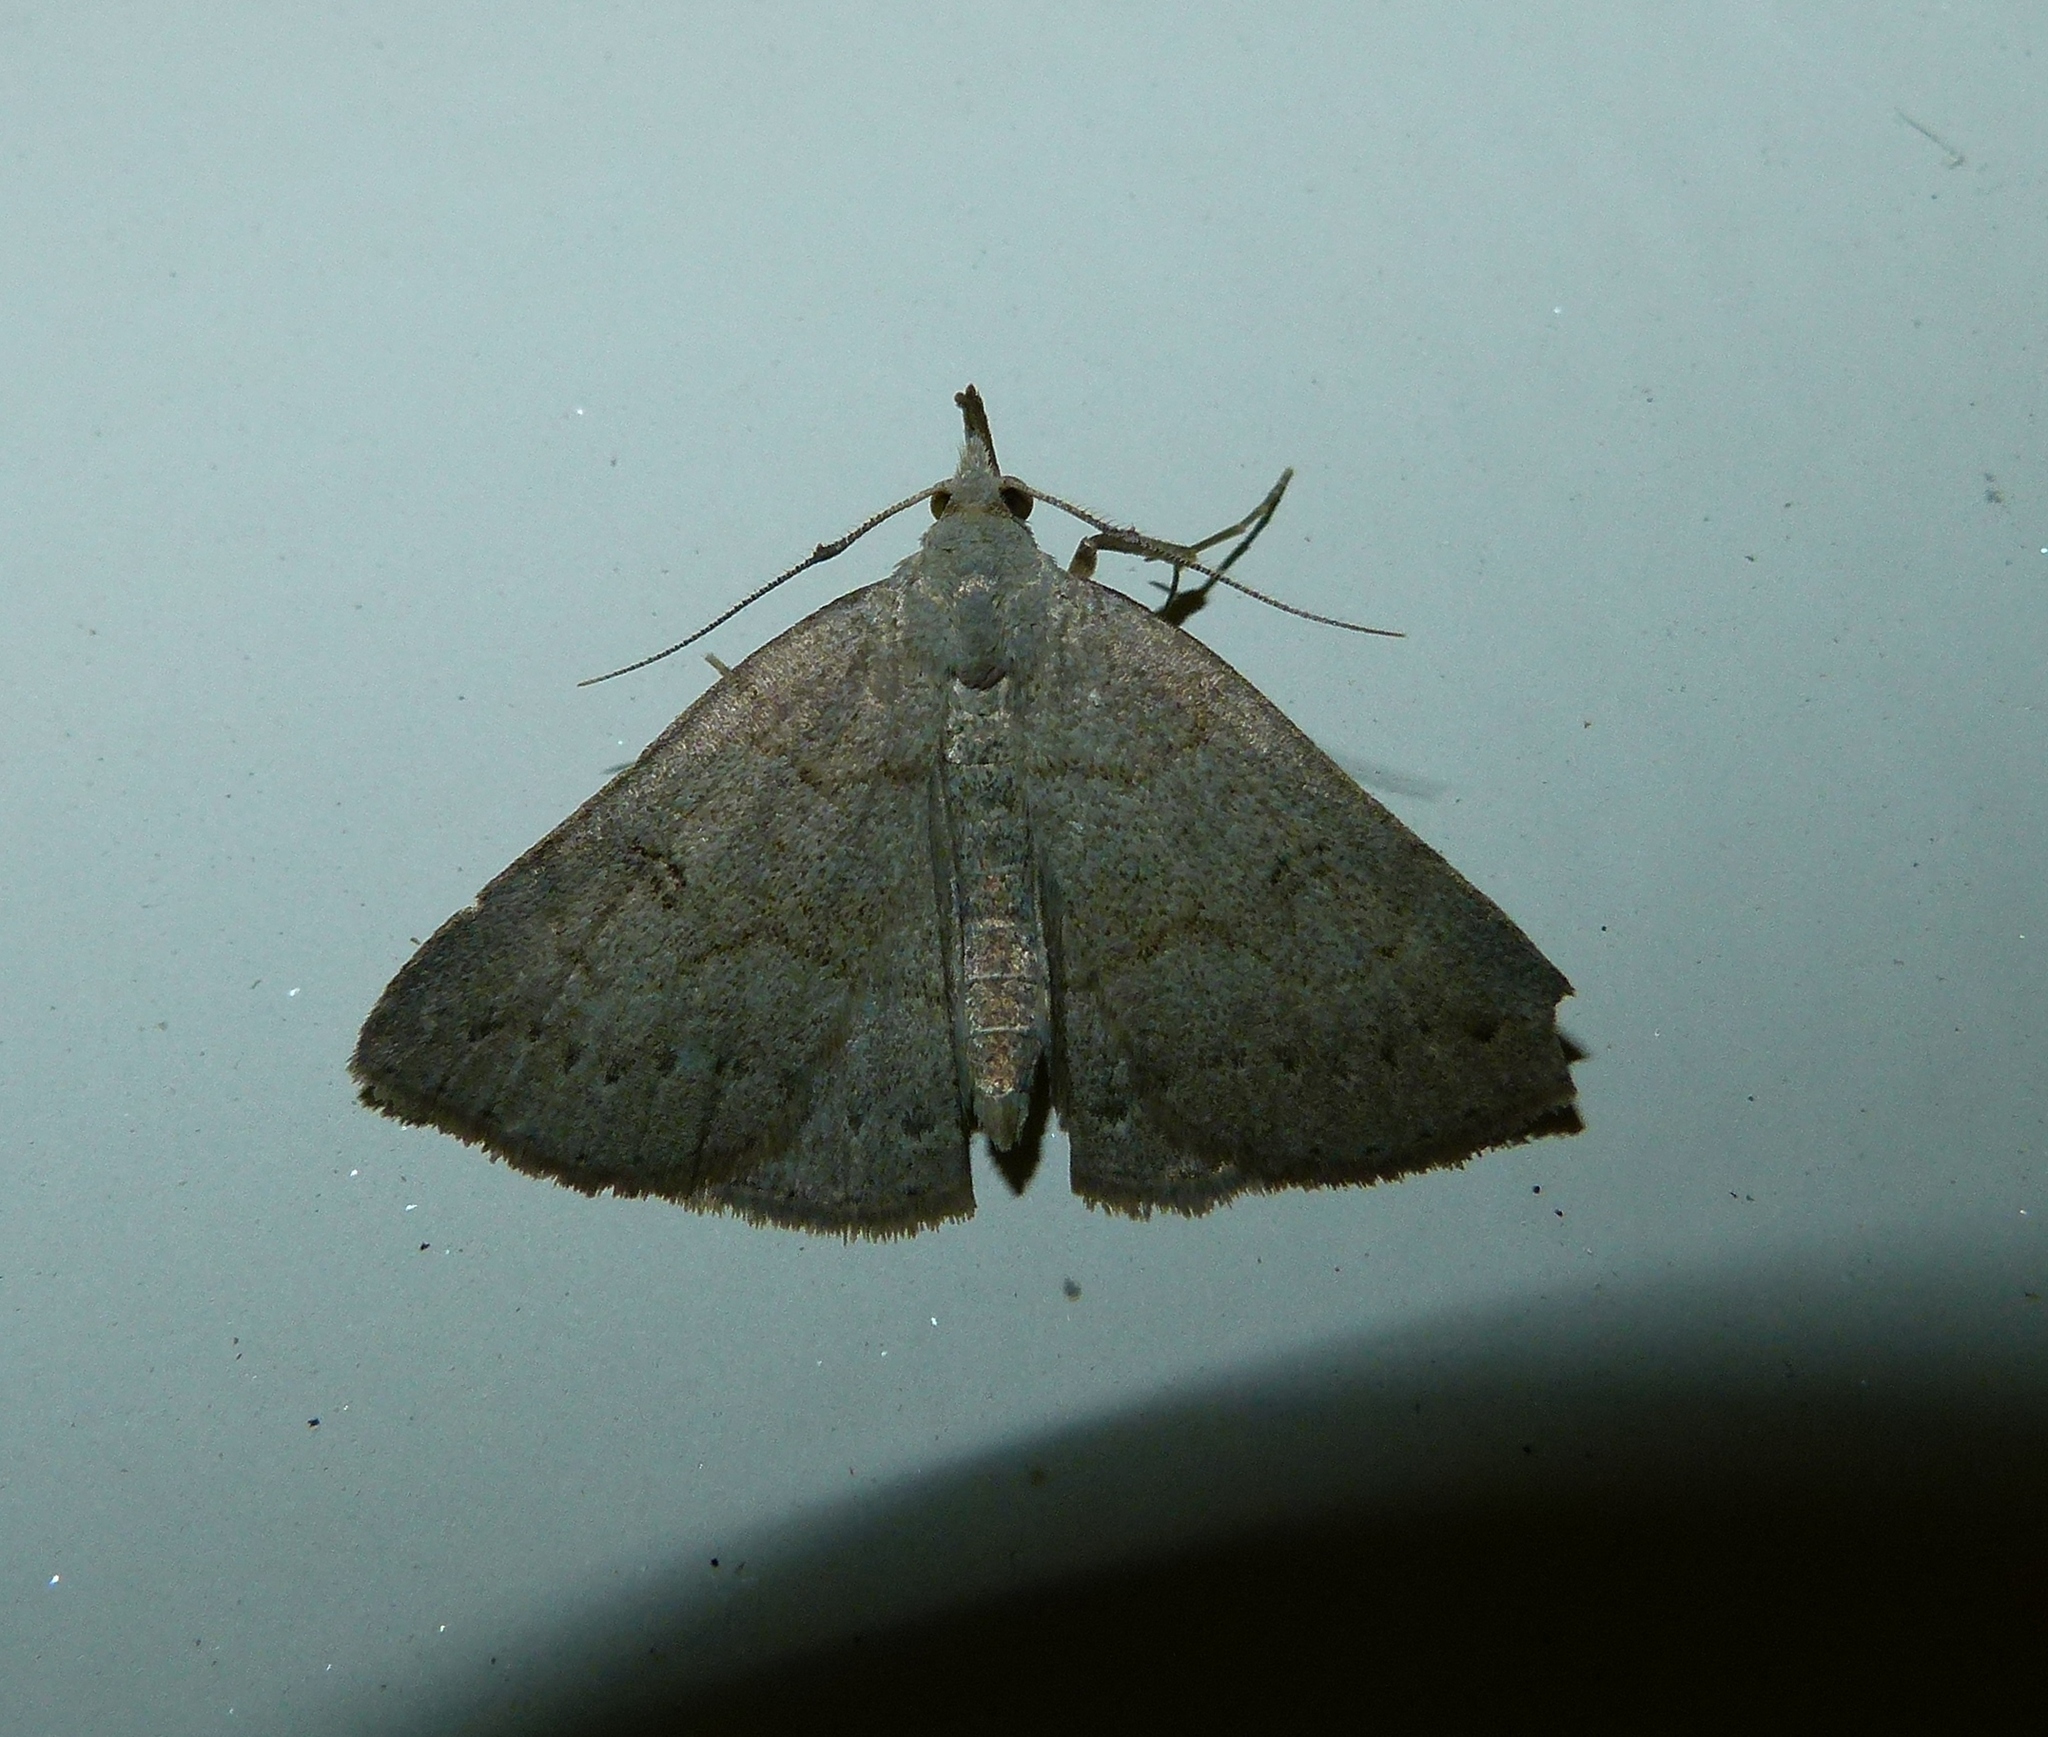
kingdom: Animalia
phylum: Arthropoda
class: Insecta
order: Lepidoptera
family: Erebidae
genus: Macrochilo
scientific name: Macrochilo morbidalis
